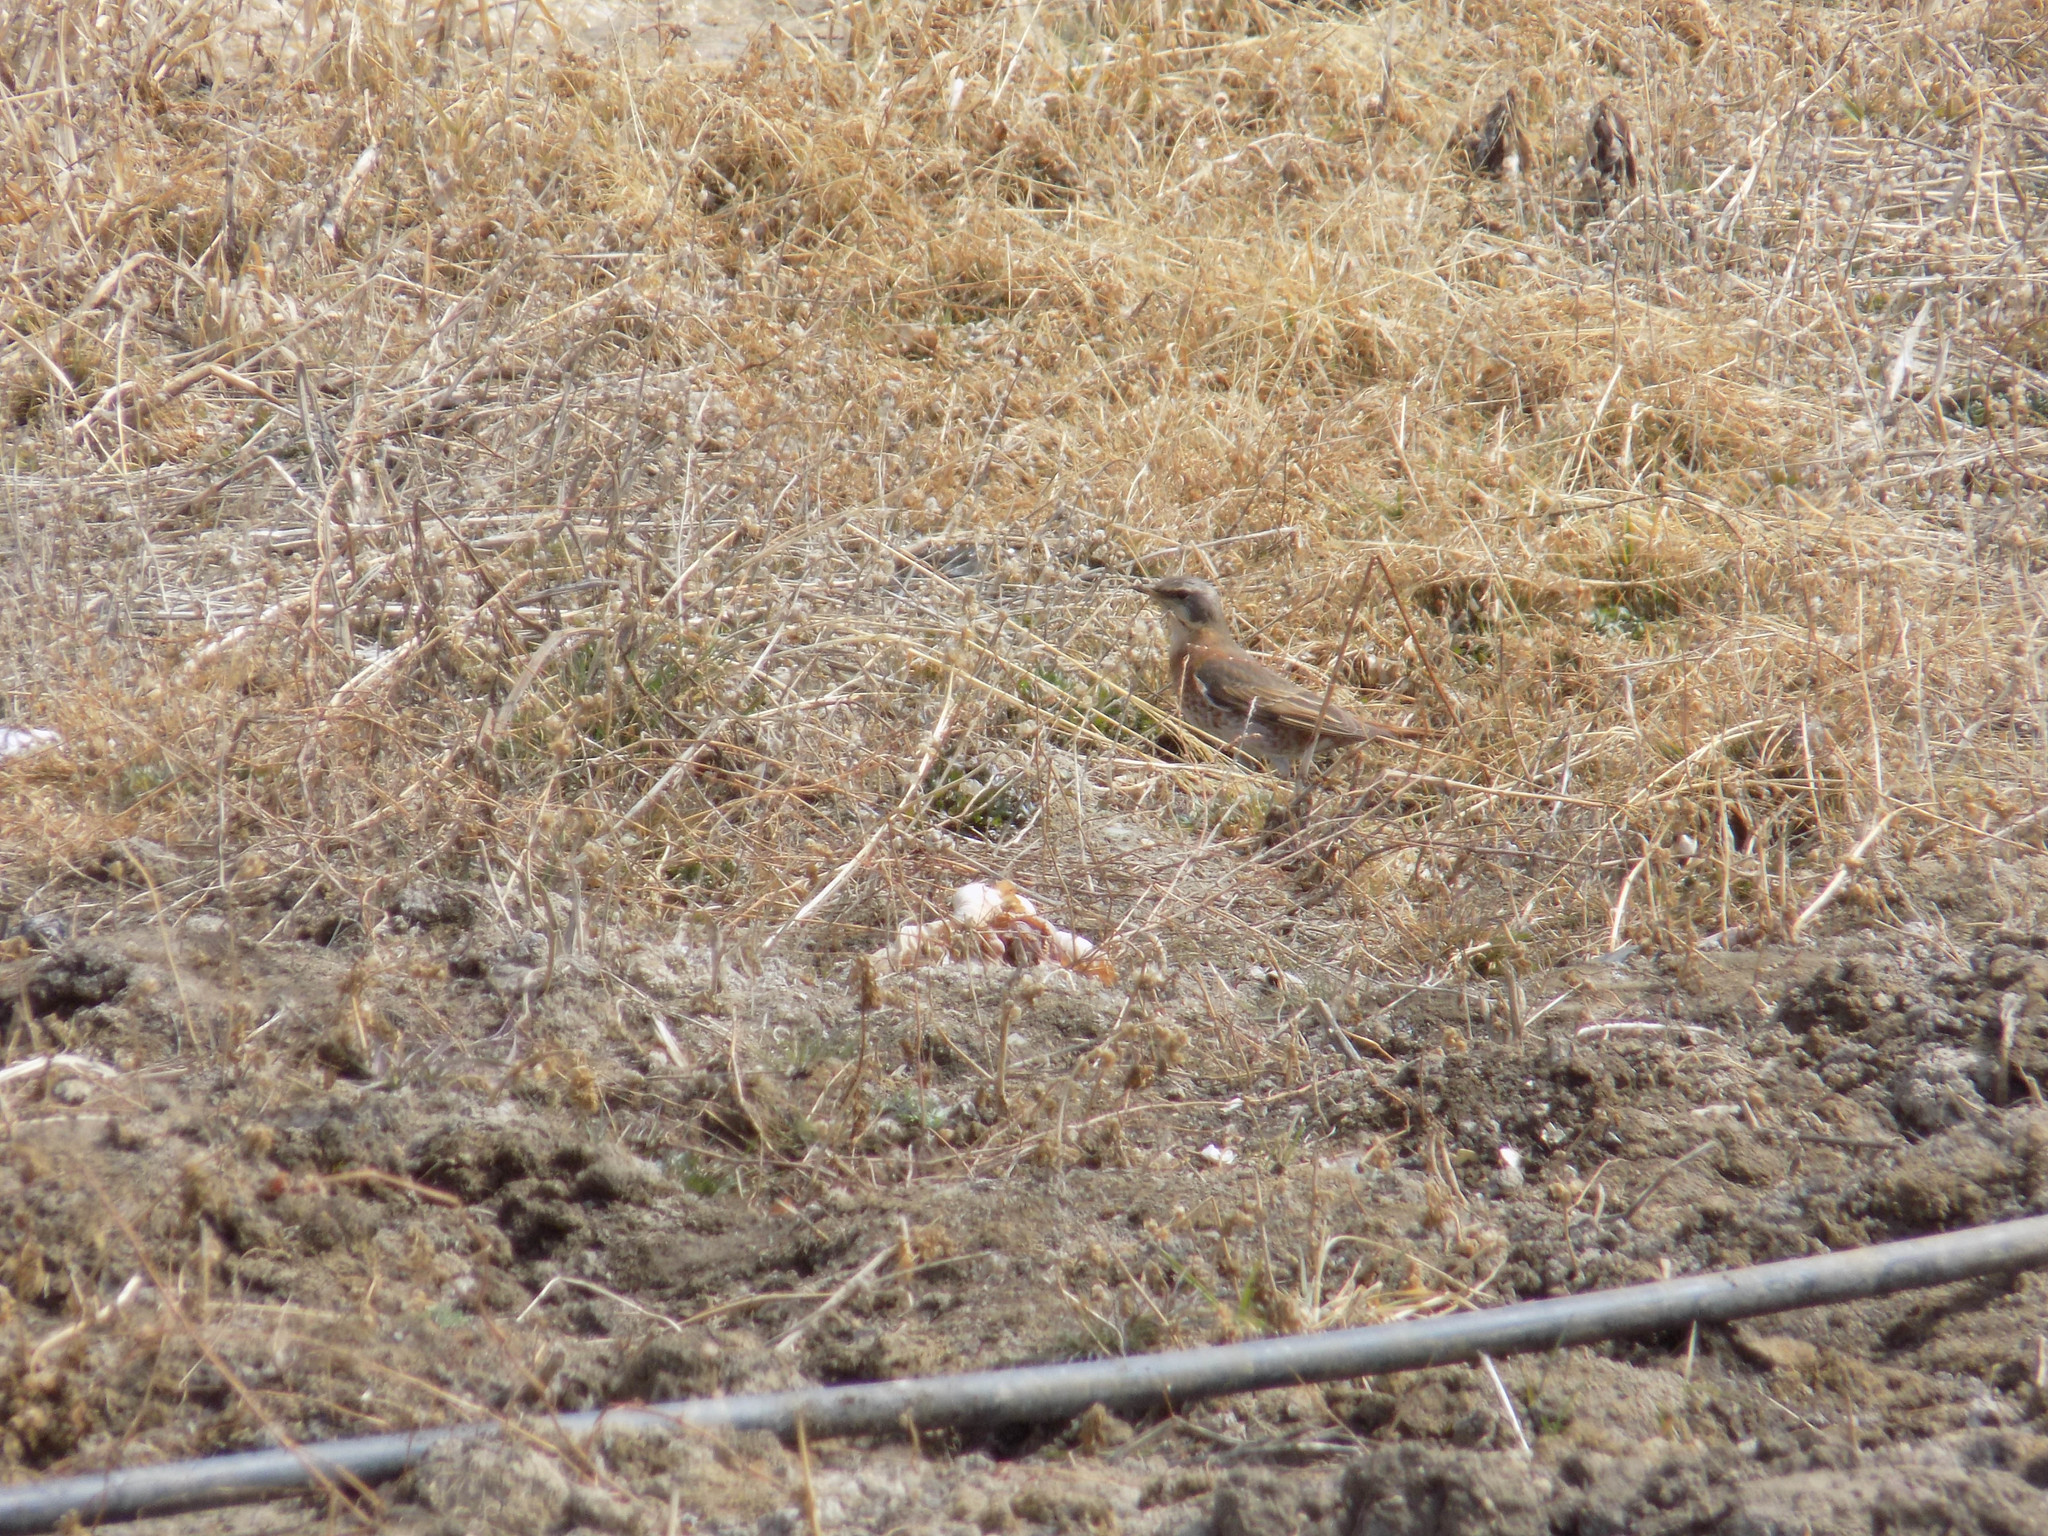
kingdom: Animalia
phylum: Chordata
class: Aves
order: Passeriformes
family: Turdidae
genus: Turdus
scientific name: Turdus naumanni
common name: Naumann's thrush
